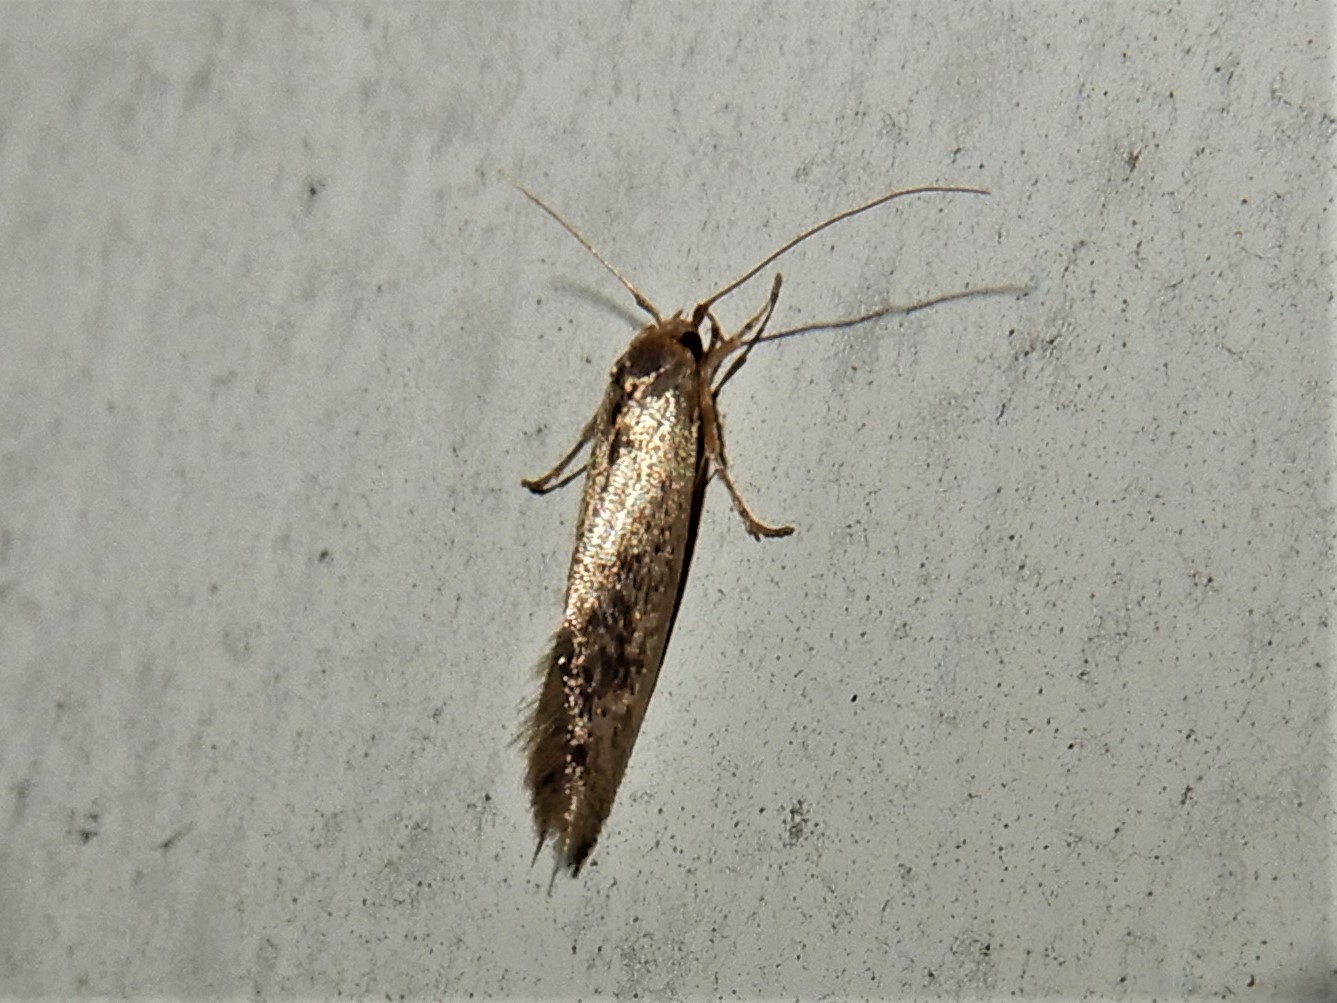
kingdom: Animalia
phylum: Arthropoda
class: Insecta
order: Lepidoptera
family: Tineidae
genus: Opogona
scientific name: Opogona omoscopa
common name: Moth
